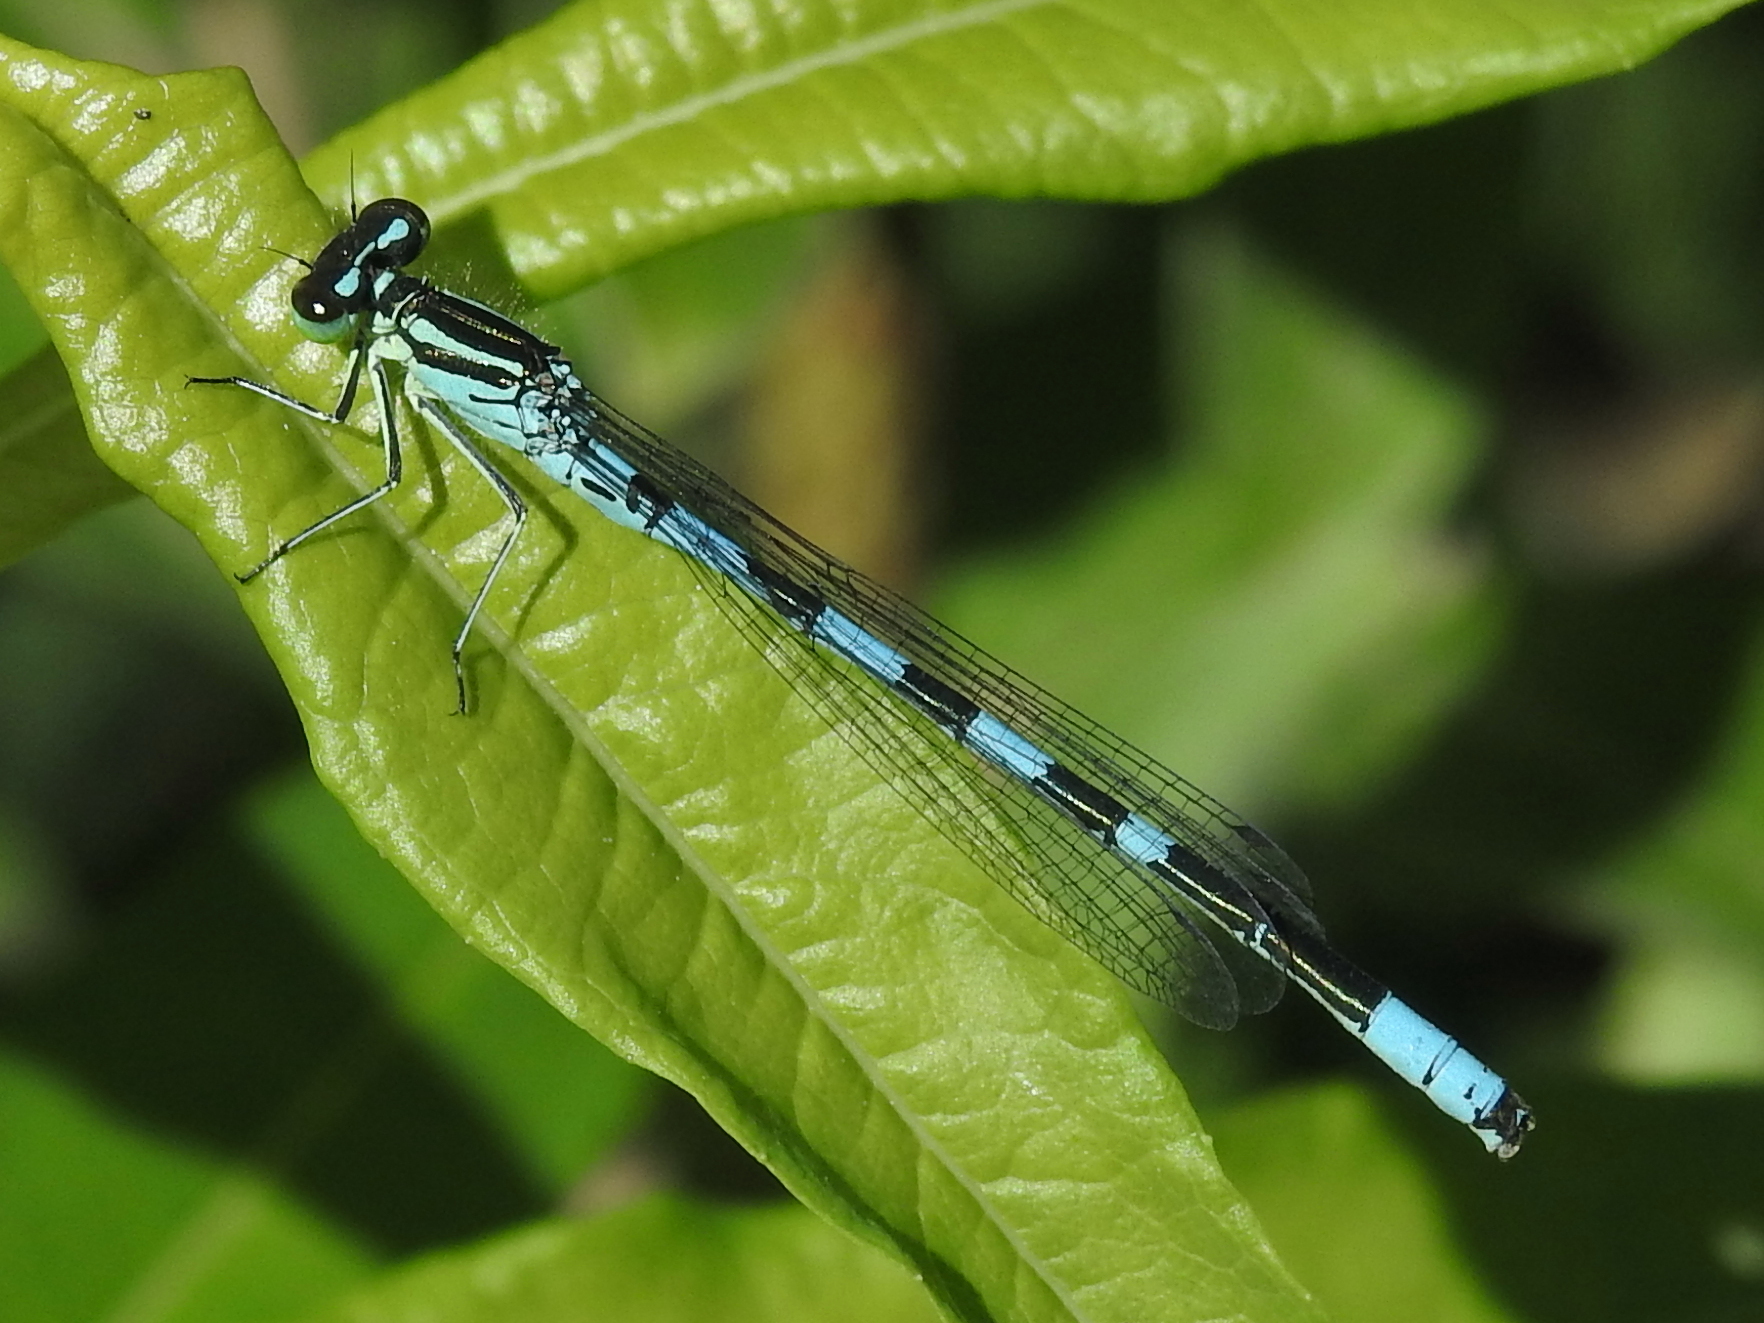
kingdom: Animalia
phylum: Arthropoda
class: Insecta
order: Odonata
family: Coenagrionidae
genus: Coenagrion
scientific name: Coenagrion hastulatum
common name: Spearhead bluet
